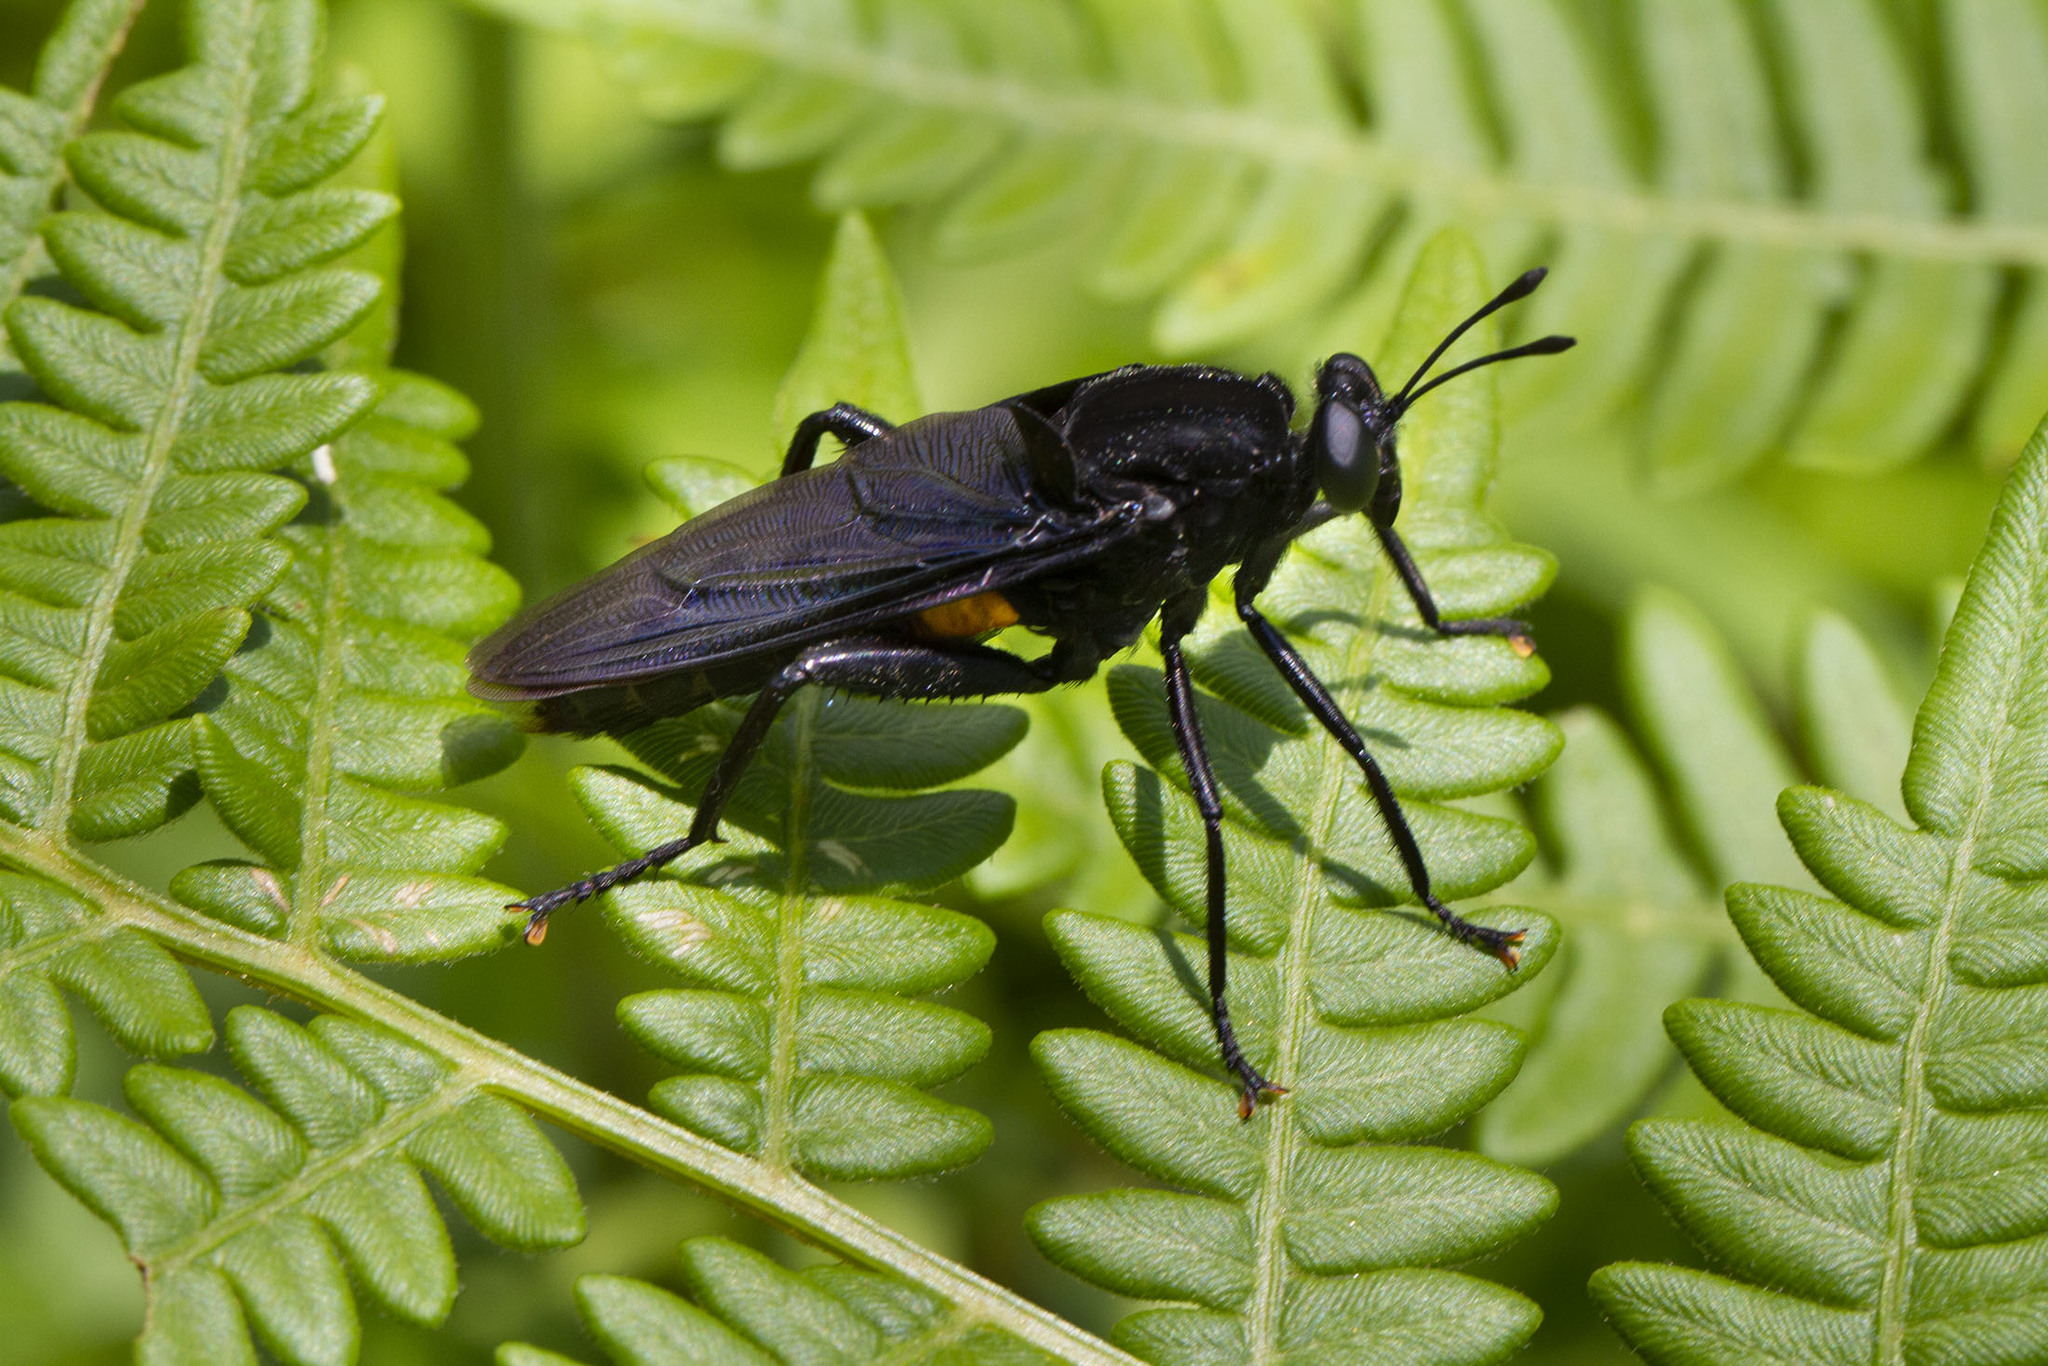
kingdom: Animalia
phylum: Arthropoda
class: Insecta
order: Diptera
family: Mydidae
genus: Mydas
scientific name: Mydas clavatus
